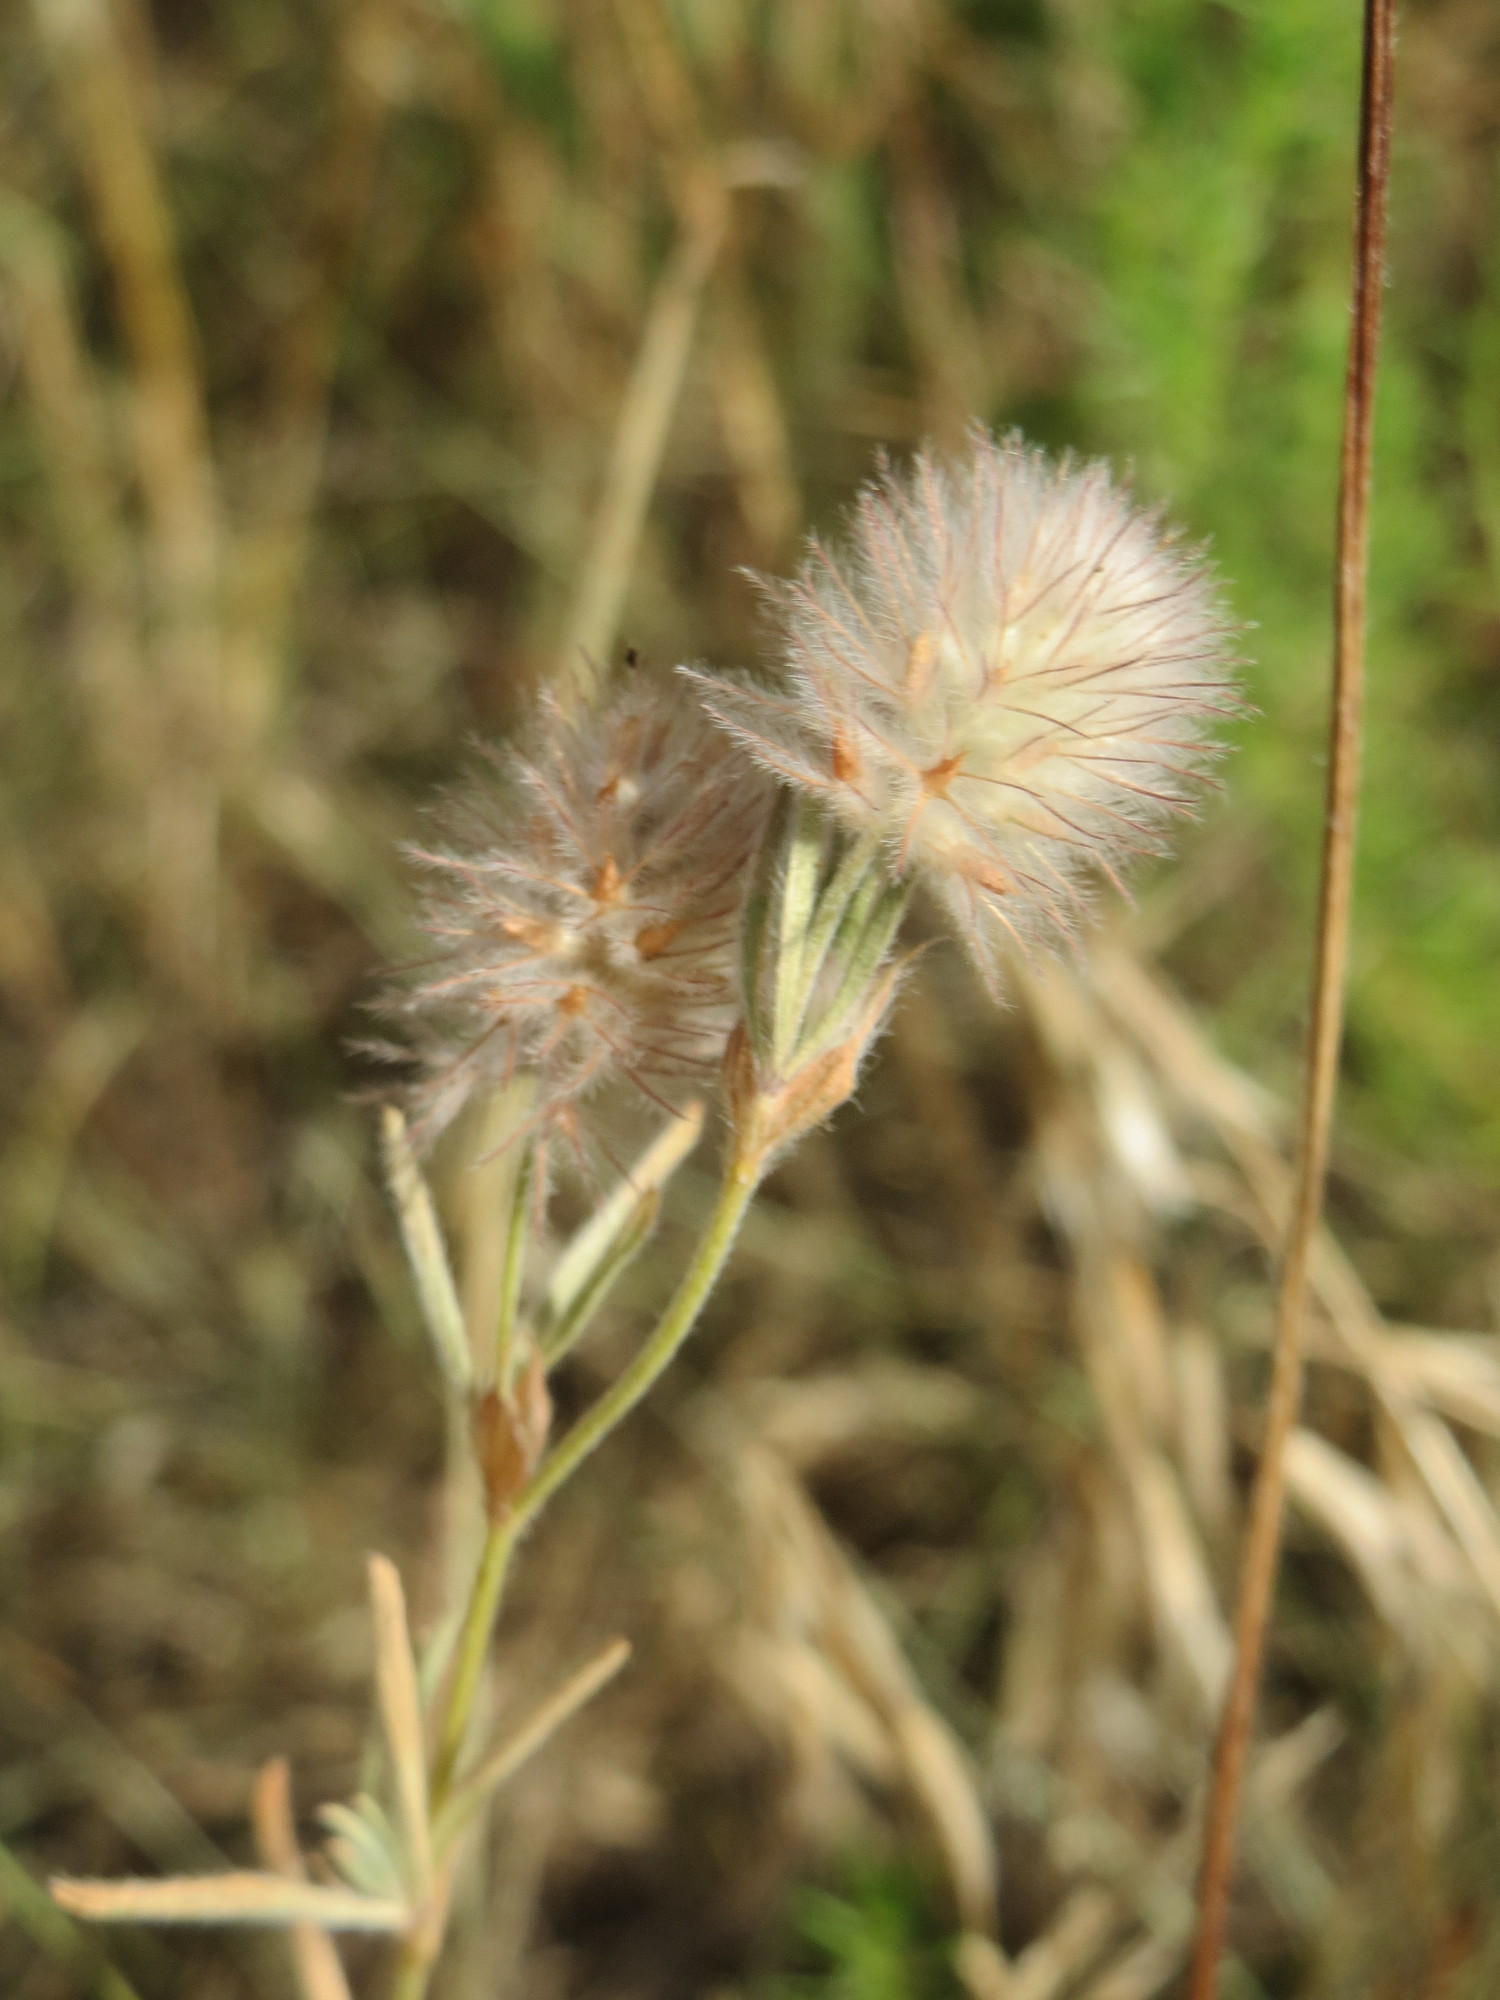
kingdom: Plantae
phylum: Tracheophyta
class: Magnoliopsida
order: Fabales
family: Fabaceae
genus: Trifolium
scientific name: Trifolium arvense
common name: Hare's-foot clover
